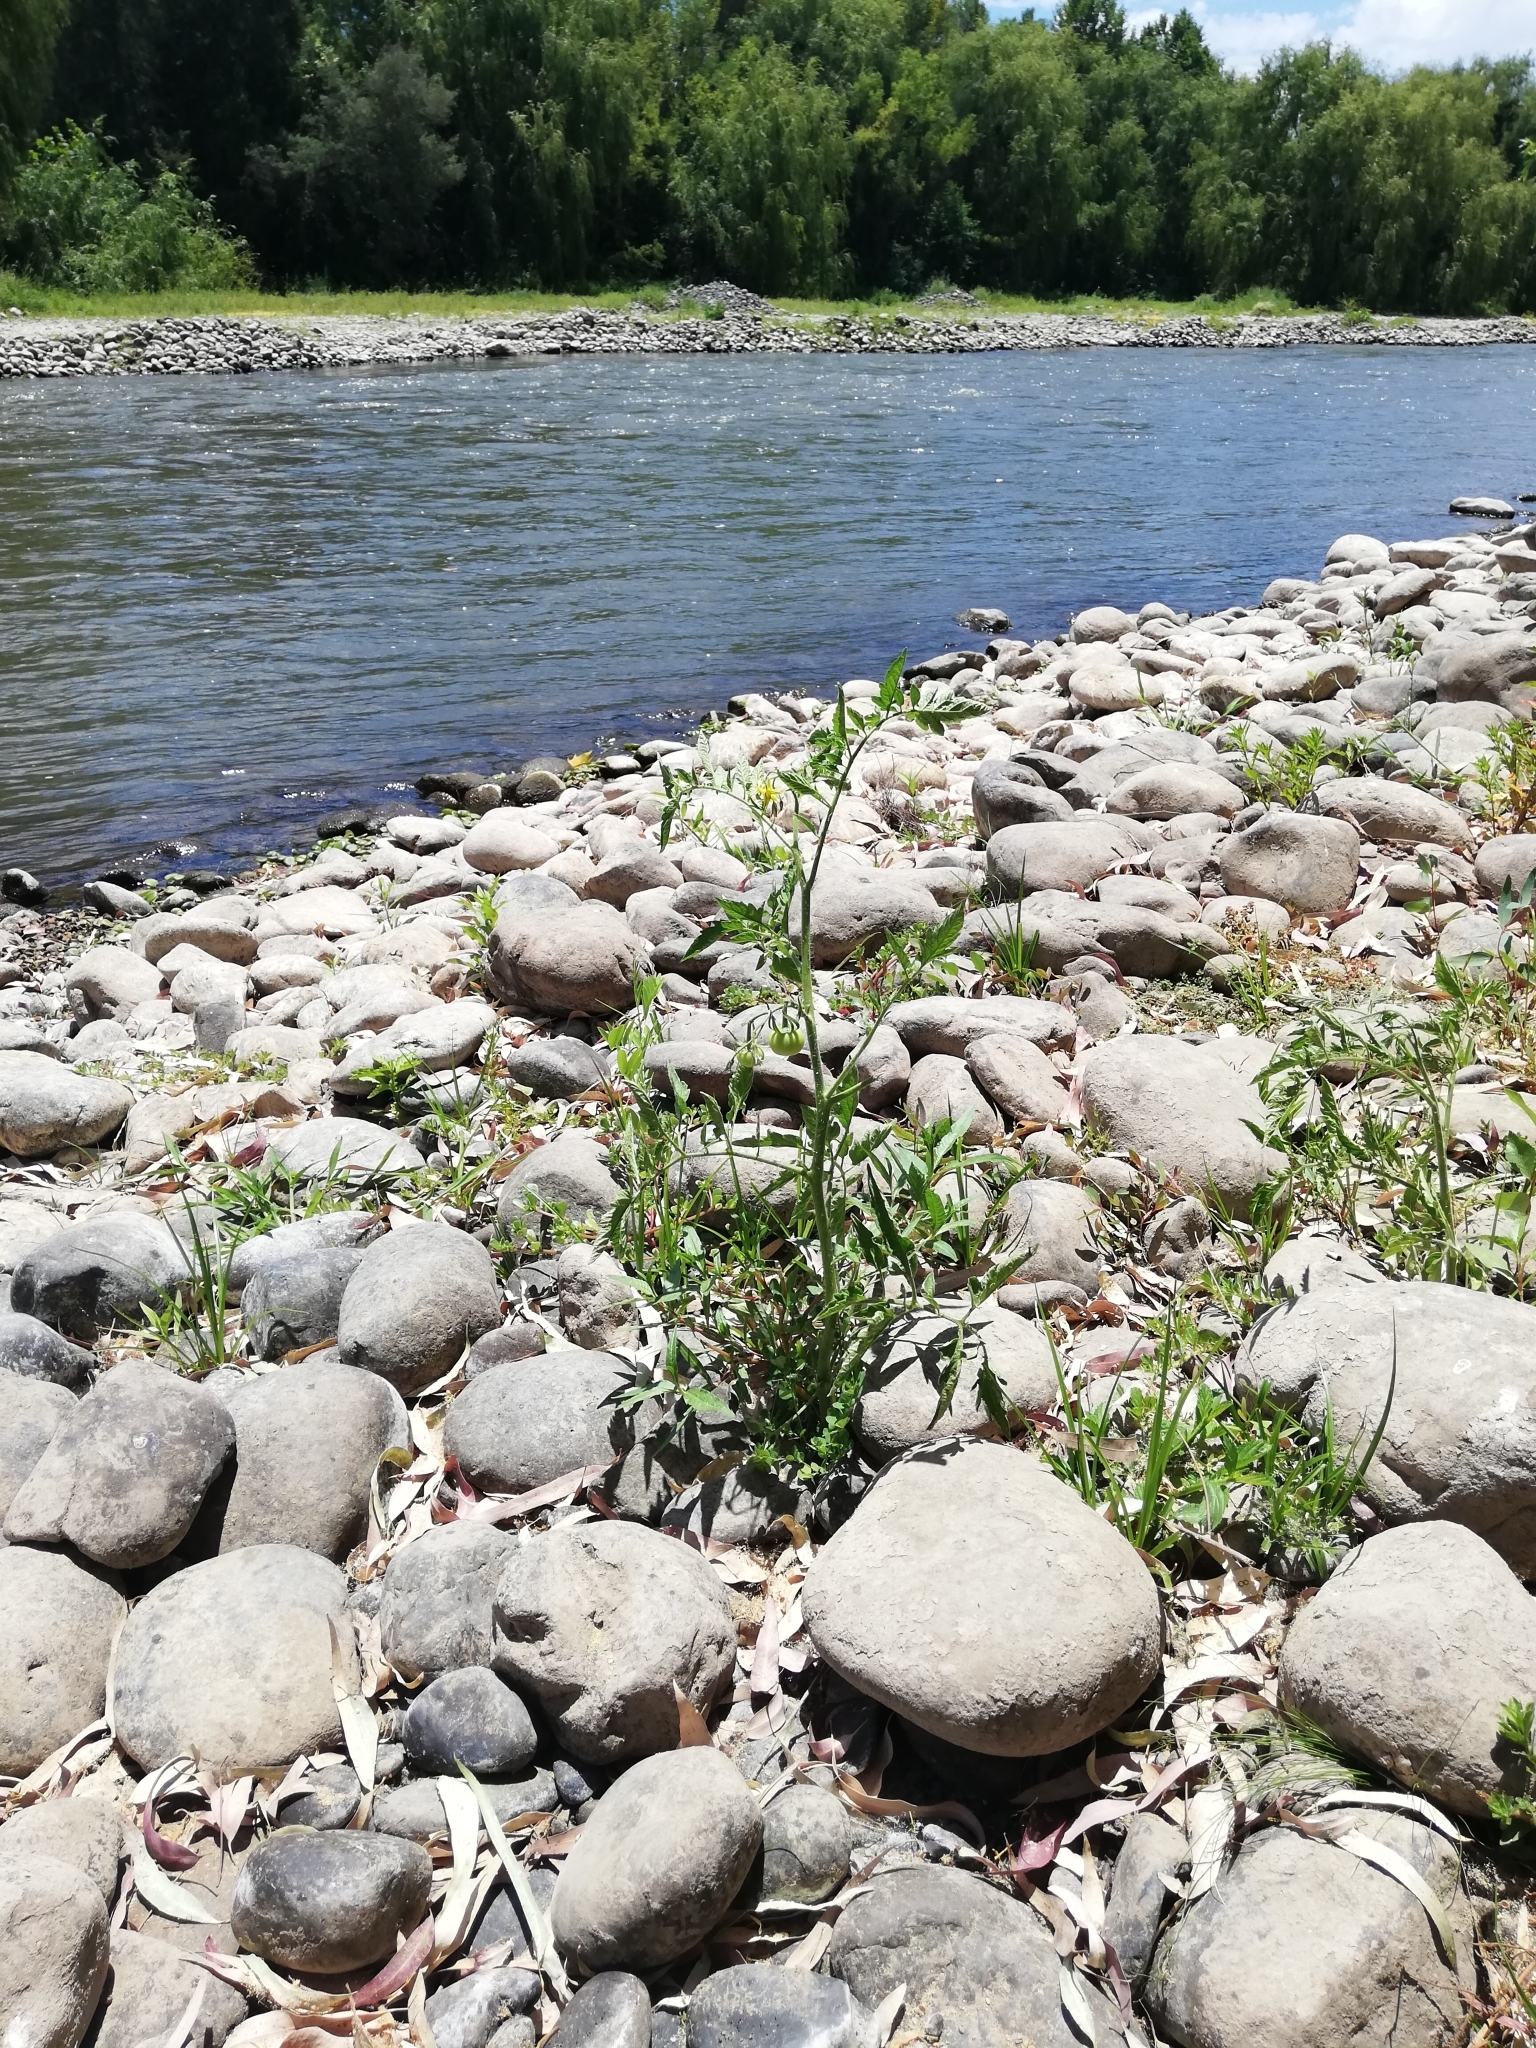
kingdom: Plantae
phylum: Tracheophyta
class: Magnoliopsida
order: Solanales
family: Solanaceae
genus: Solanum
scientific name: Solanum lycopersicum
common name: Garden tomato
